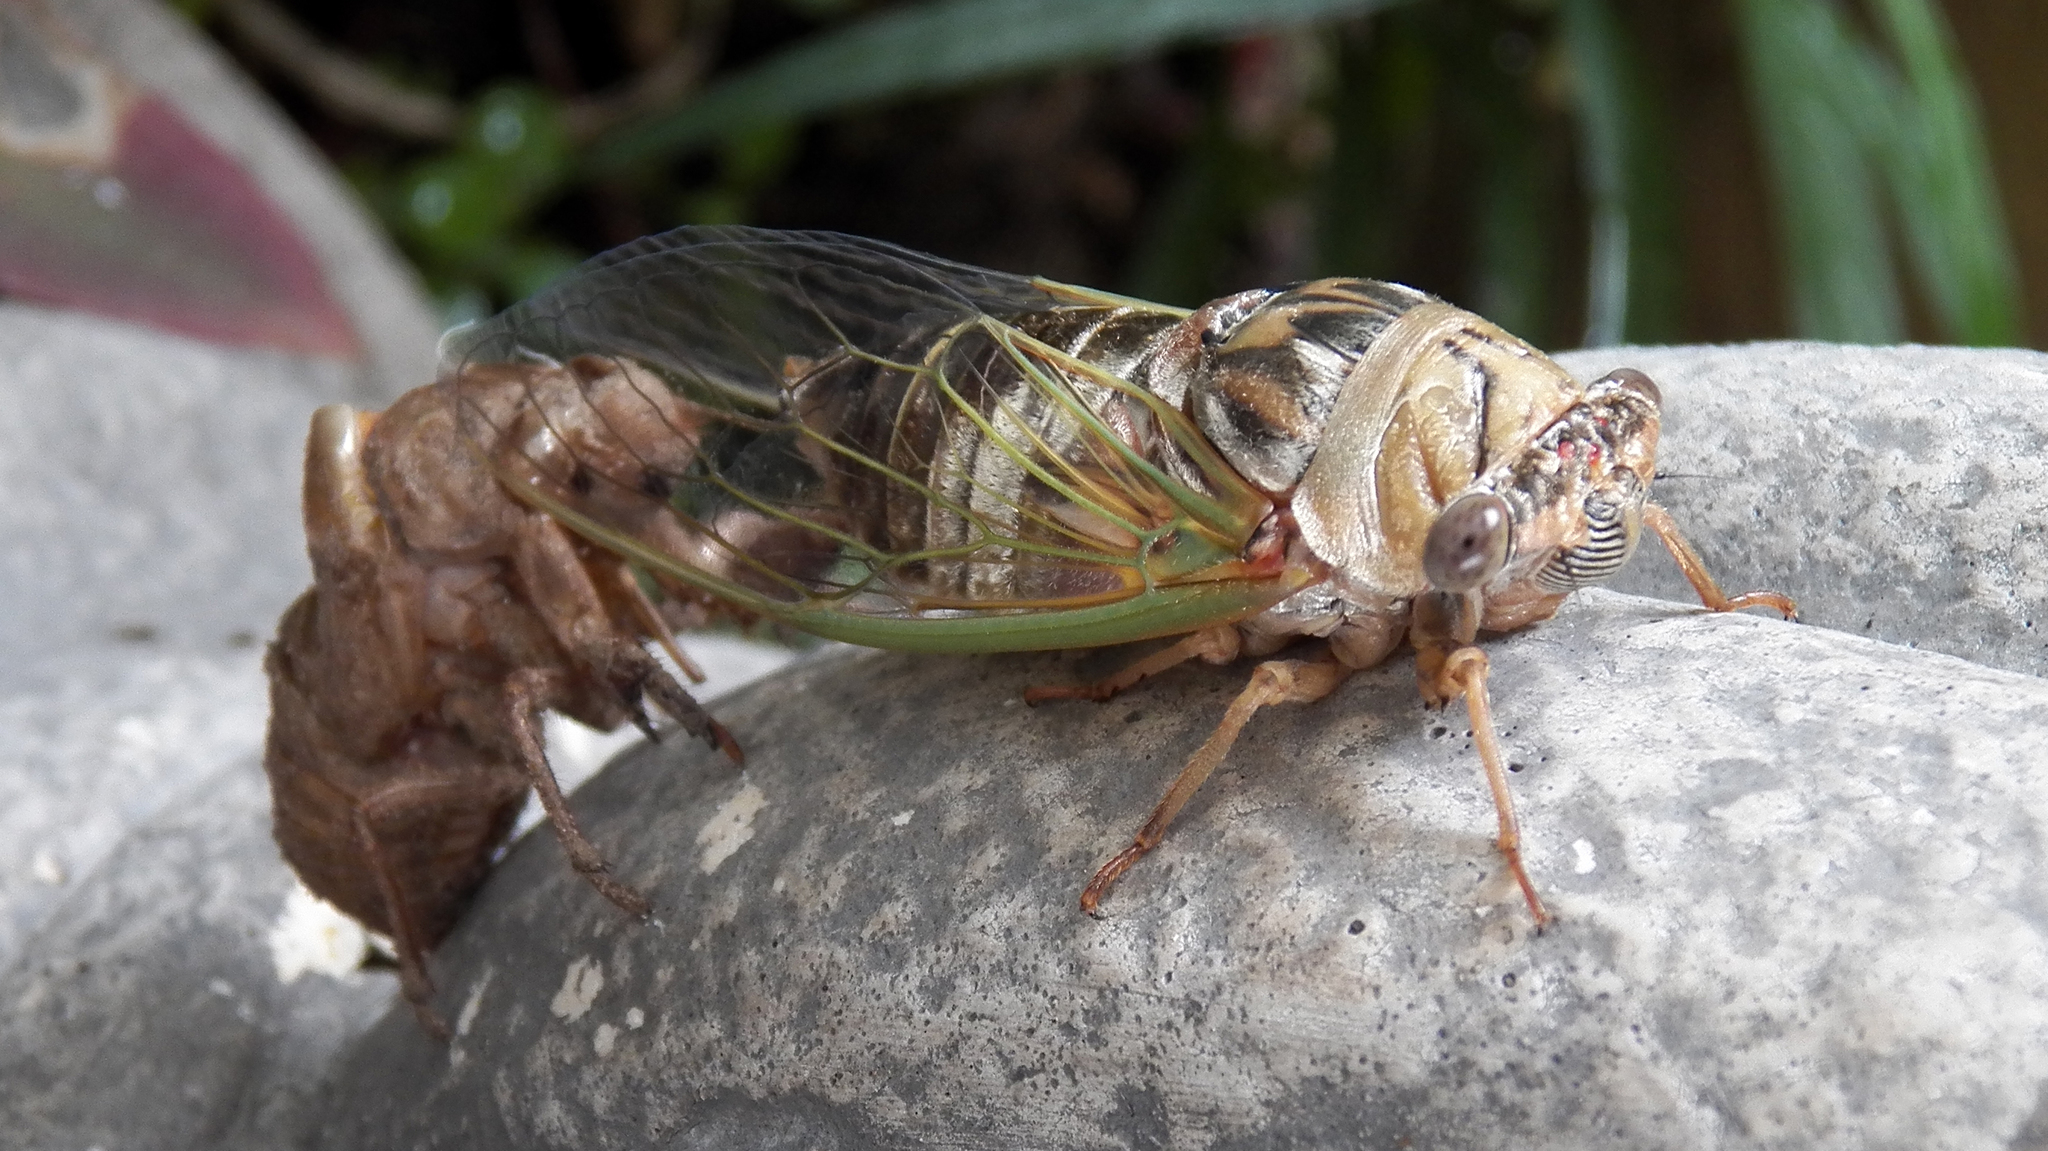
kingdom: Animalia
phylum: Arthropoda
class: Insecta
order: Hemiptera
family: Cicadidae
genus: Megatibicen
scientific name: Megatibicen resh
